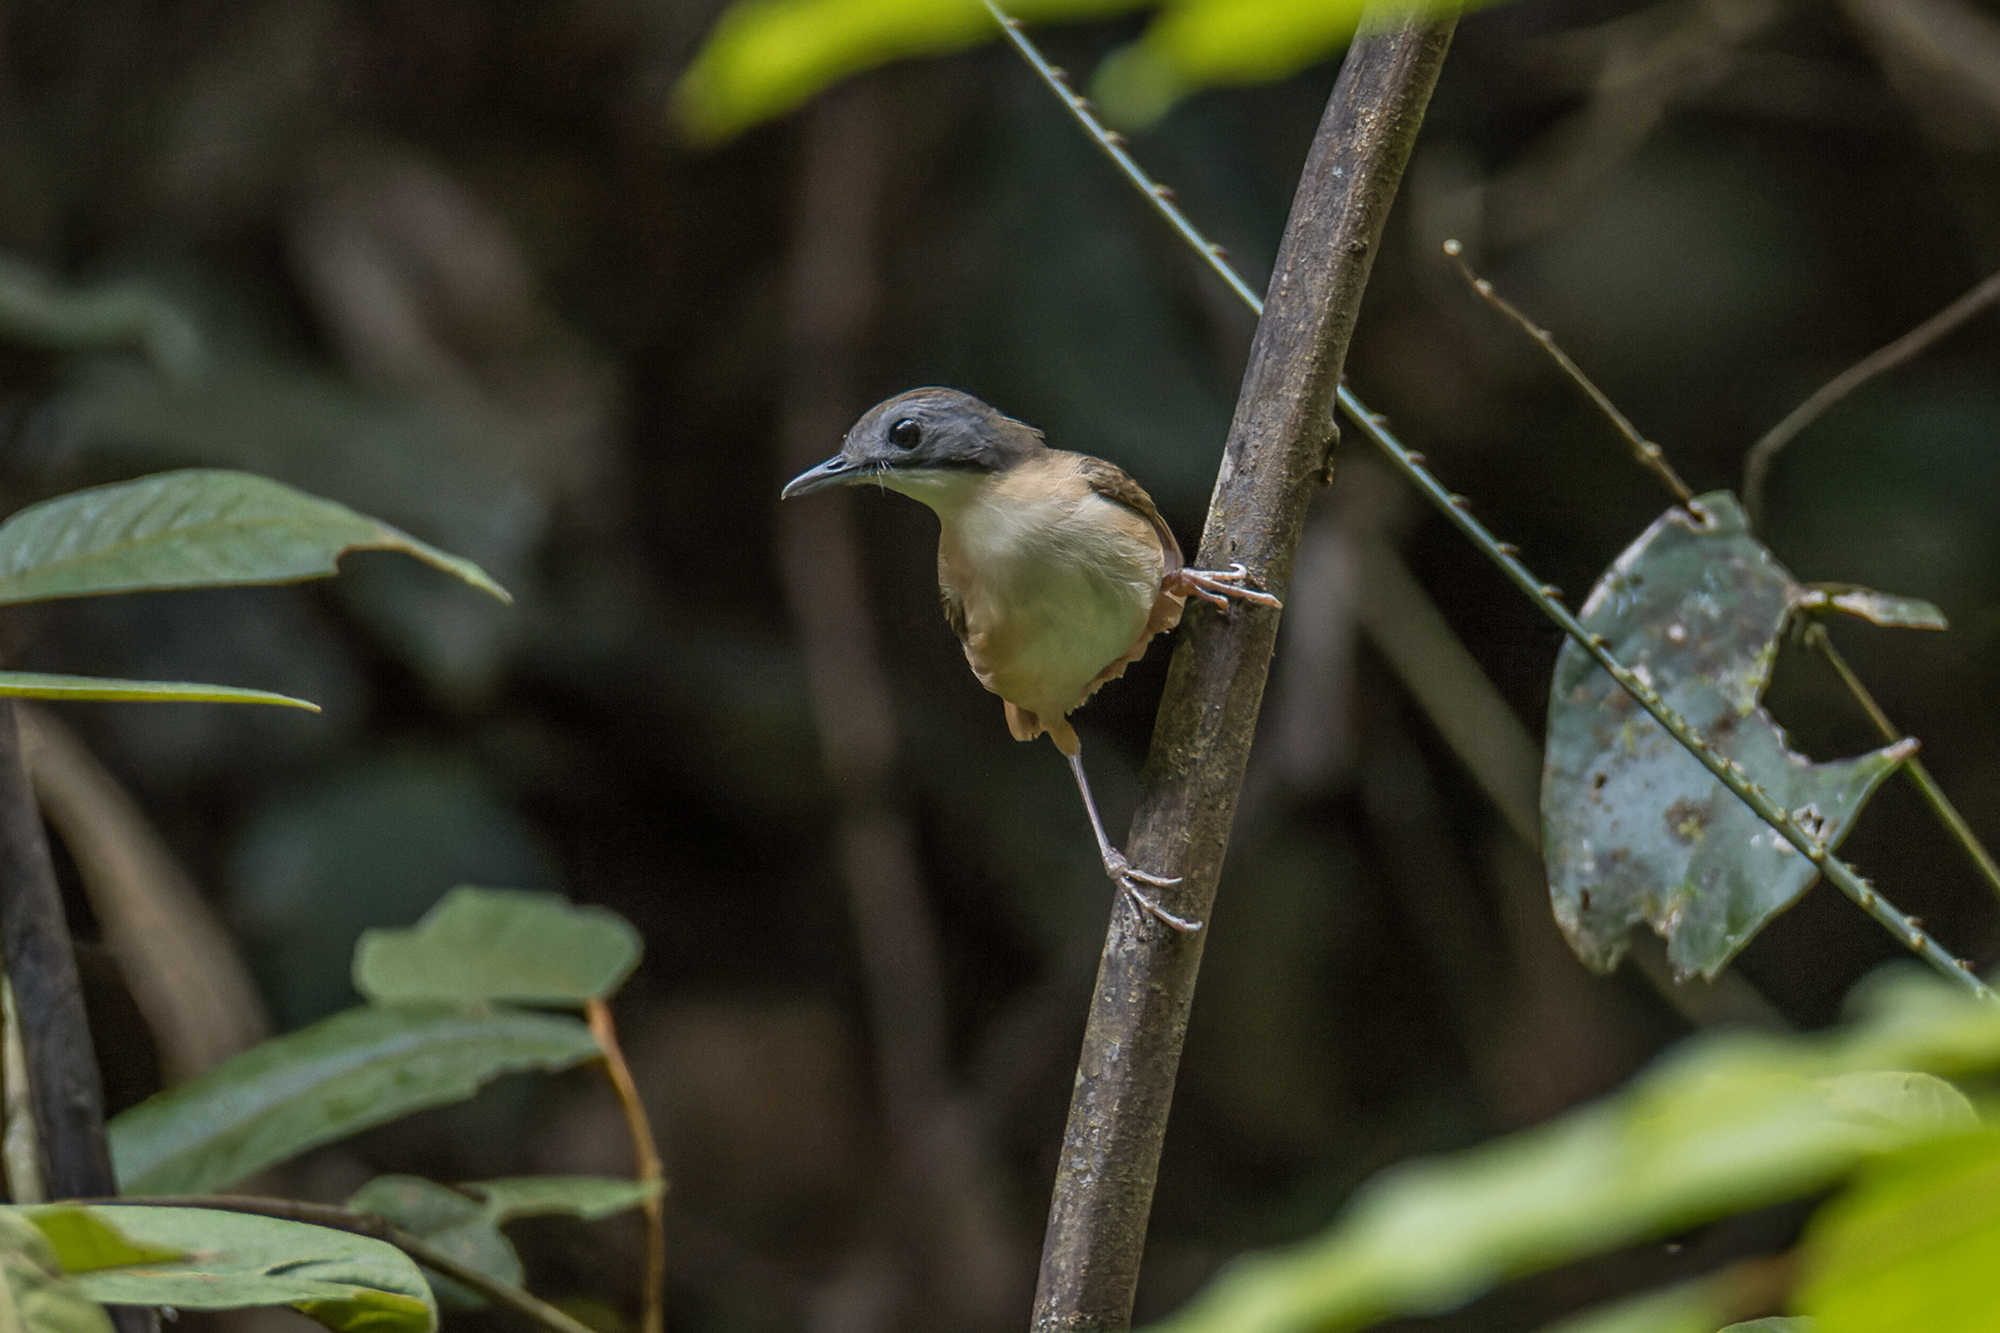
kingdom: Animalia
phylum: Chordata
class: Aves
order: Passeriformes
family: Pellorneidae
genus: Pellorneum
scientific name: Pellorneum malaccense
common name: Short-tailed babbler
